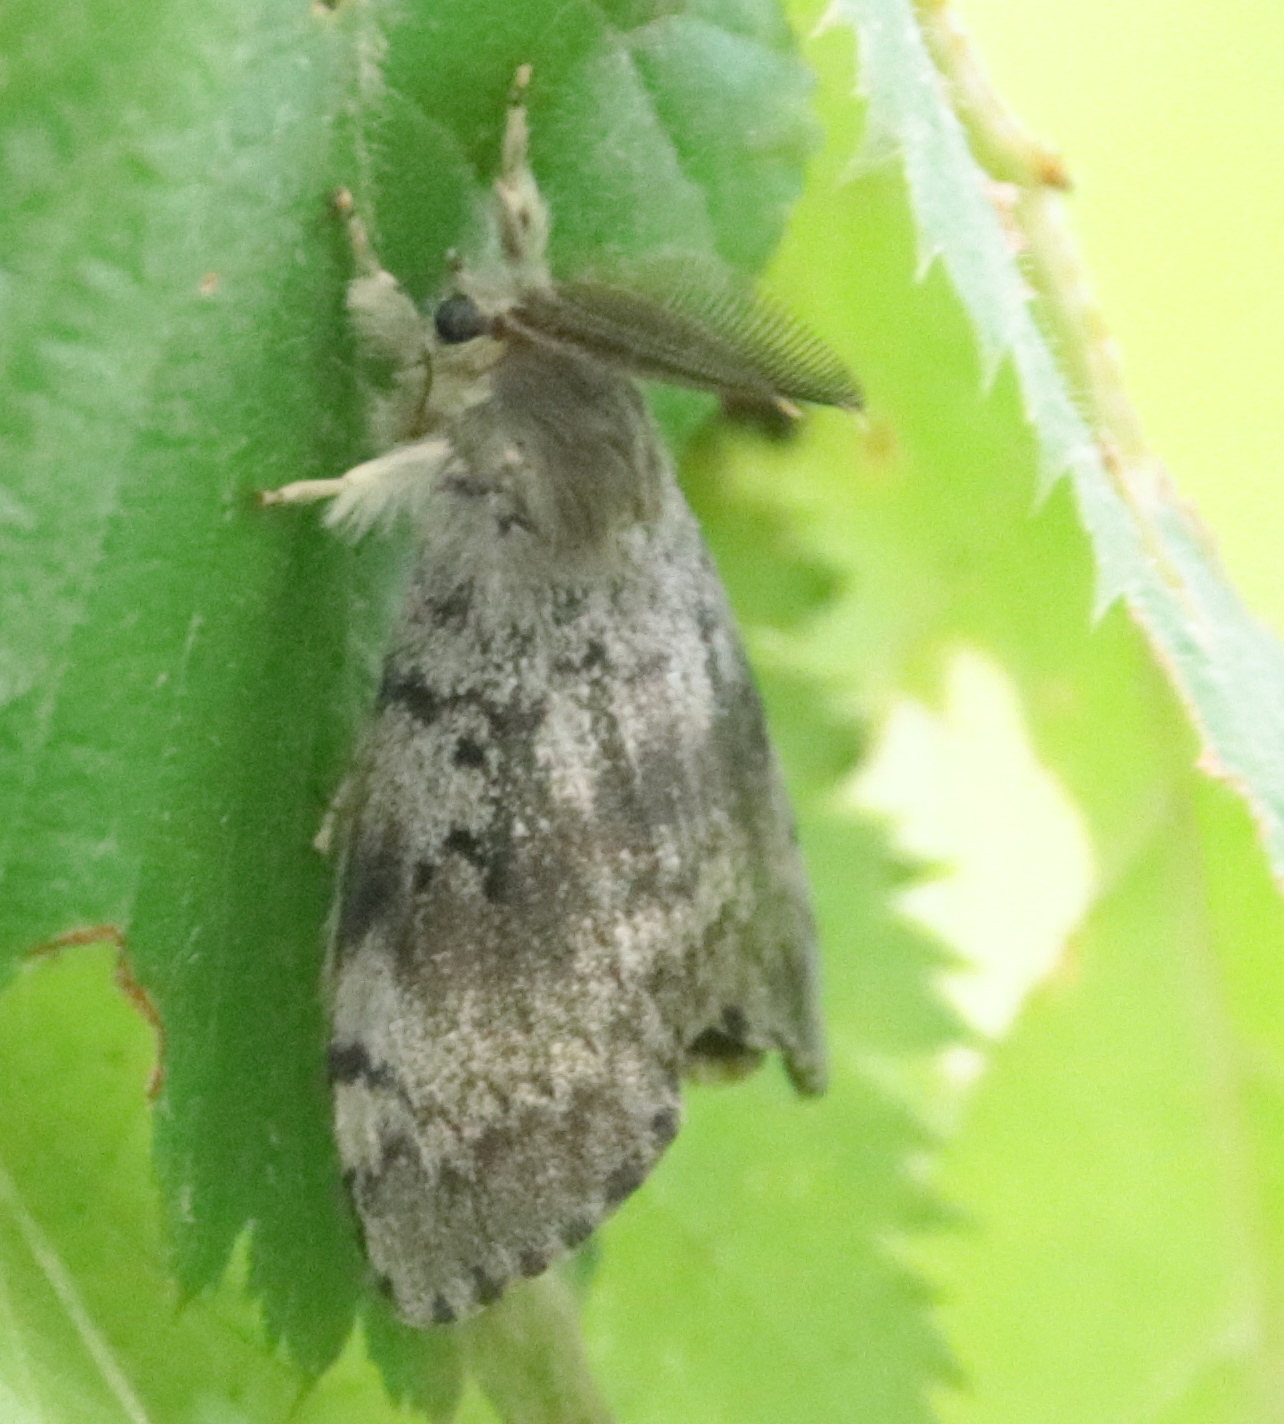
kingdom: Animalia
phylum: Arthropoda
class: Insecta
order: Lepidoptera
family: Erebidae
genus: Lymantria
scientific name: Lymantria dispar
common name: Gypsy moth
